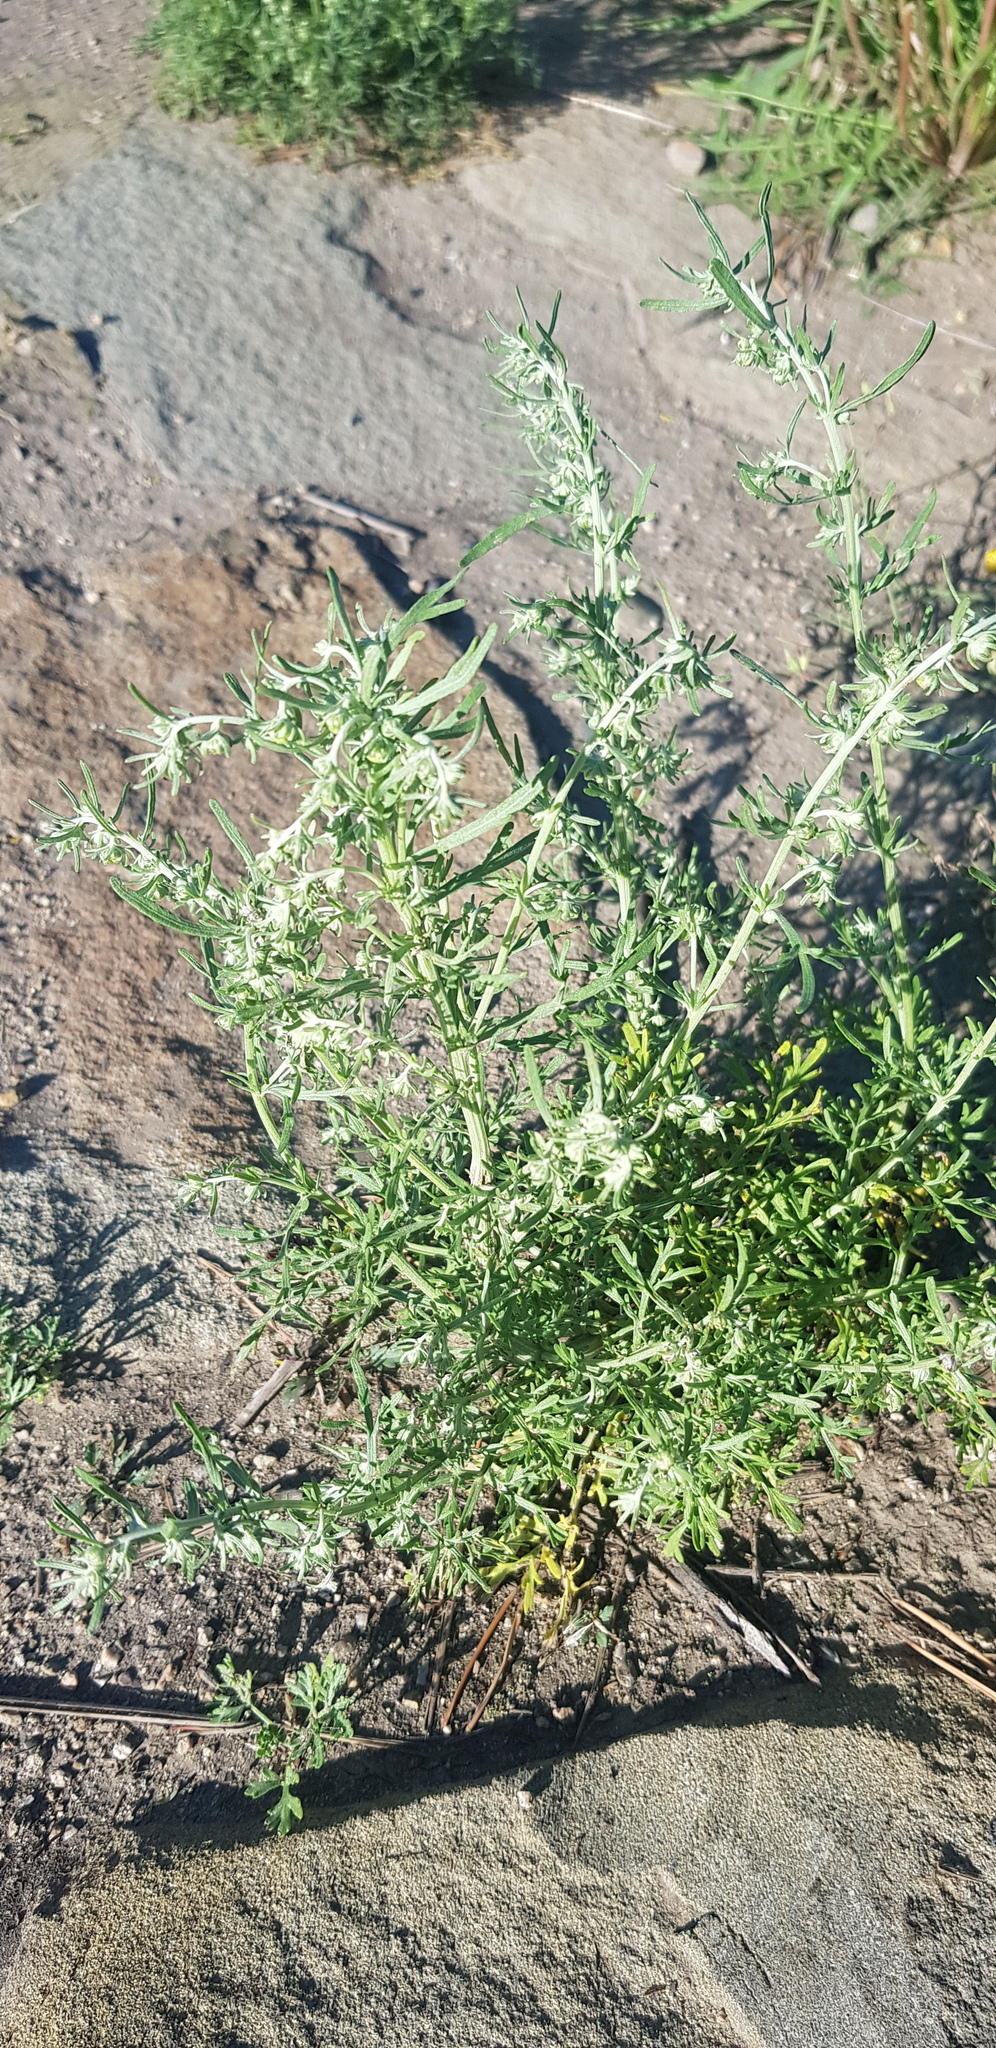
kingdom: Plantae
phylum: Tracheophyta
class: Magnoliopsida
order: Asterales
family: Asteraceae
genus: Artemisia
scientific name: Artemisia sieversiana
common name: Sieversian wormwood
